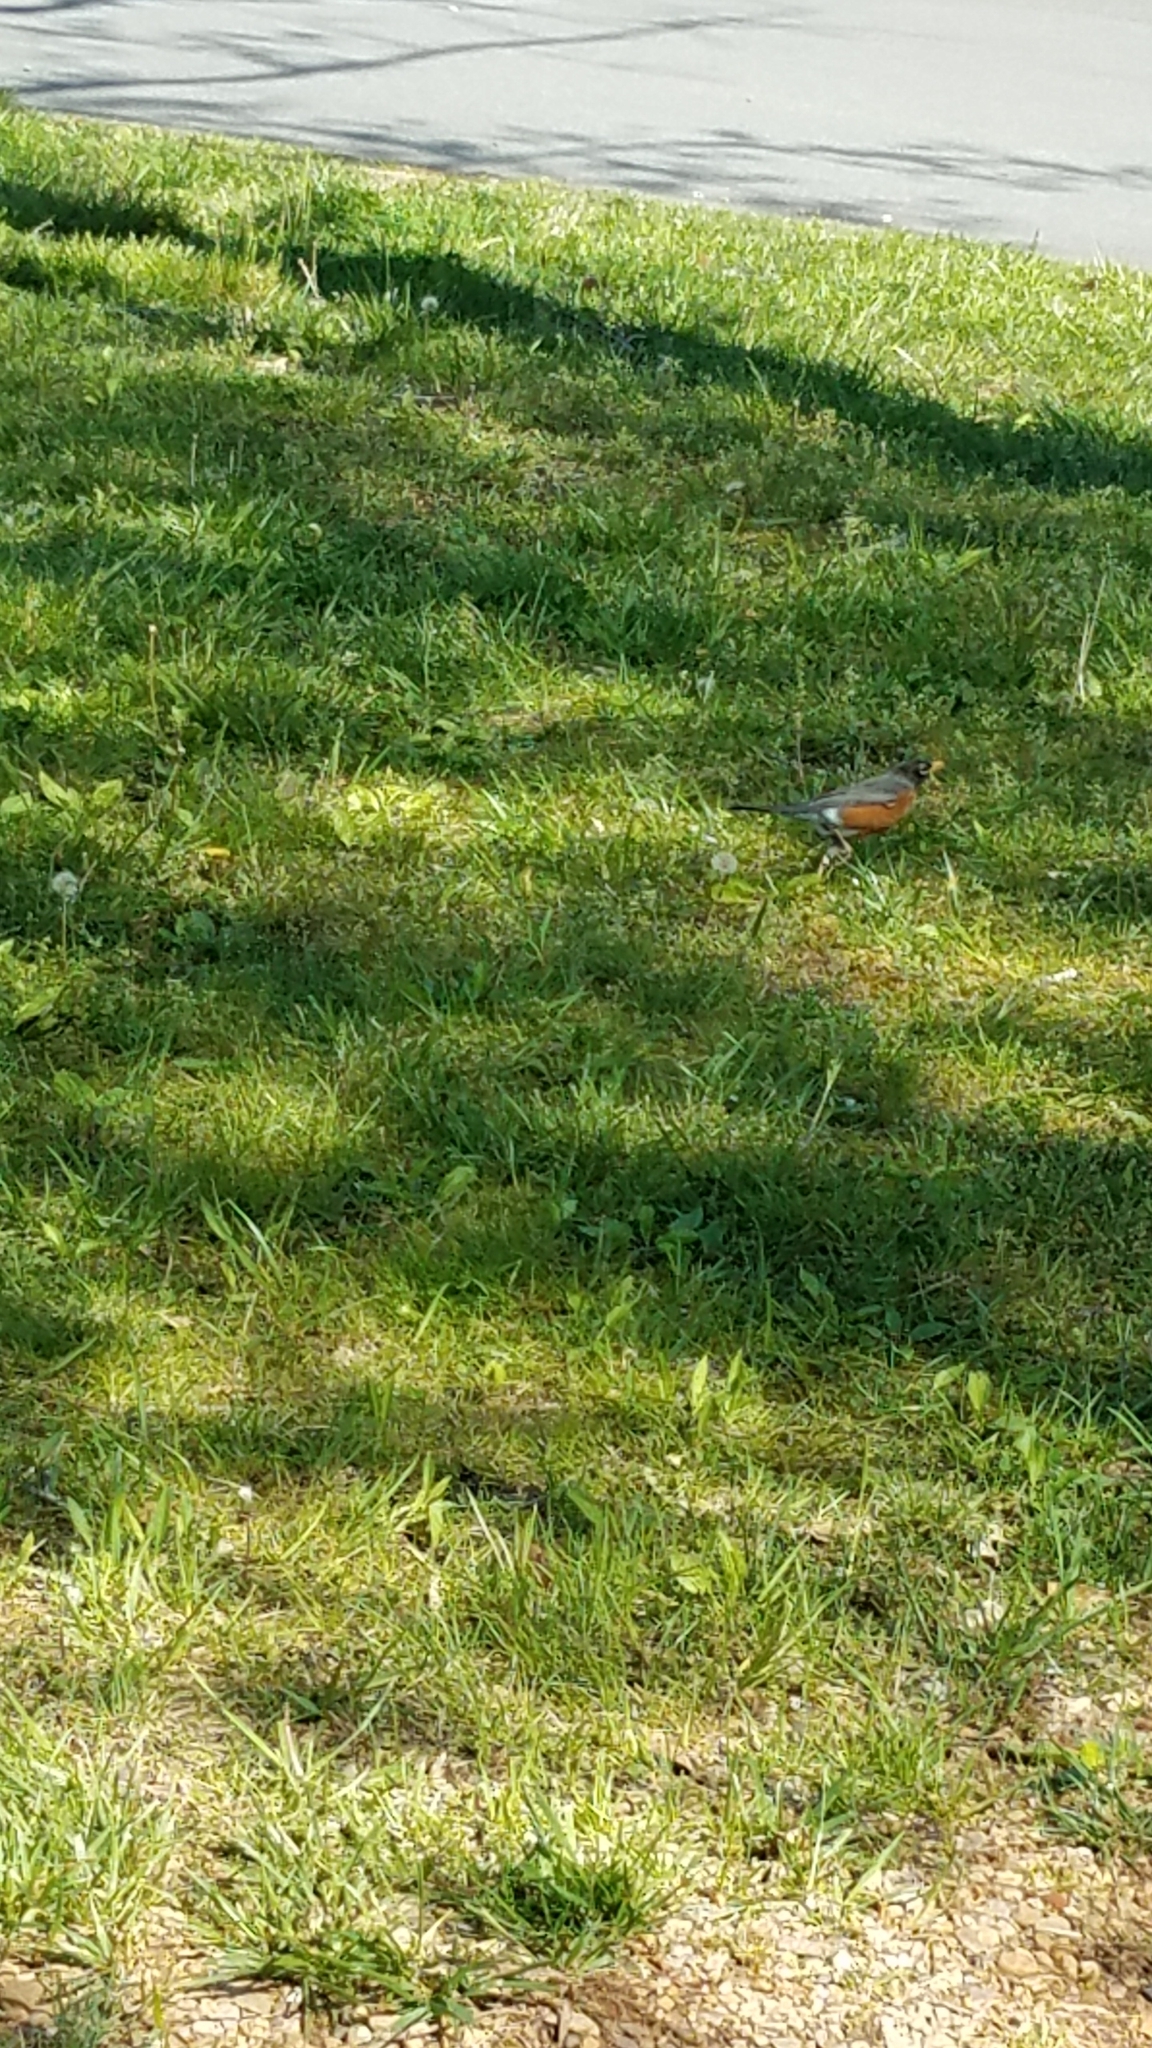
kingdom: Animalia
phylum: Chordata
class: Aves
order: Passeriformes
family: Turdidae
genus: Turdus
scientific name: Turdus migratorius
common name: American robin
